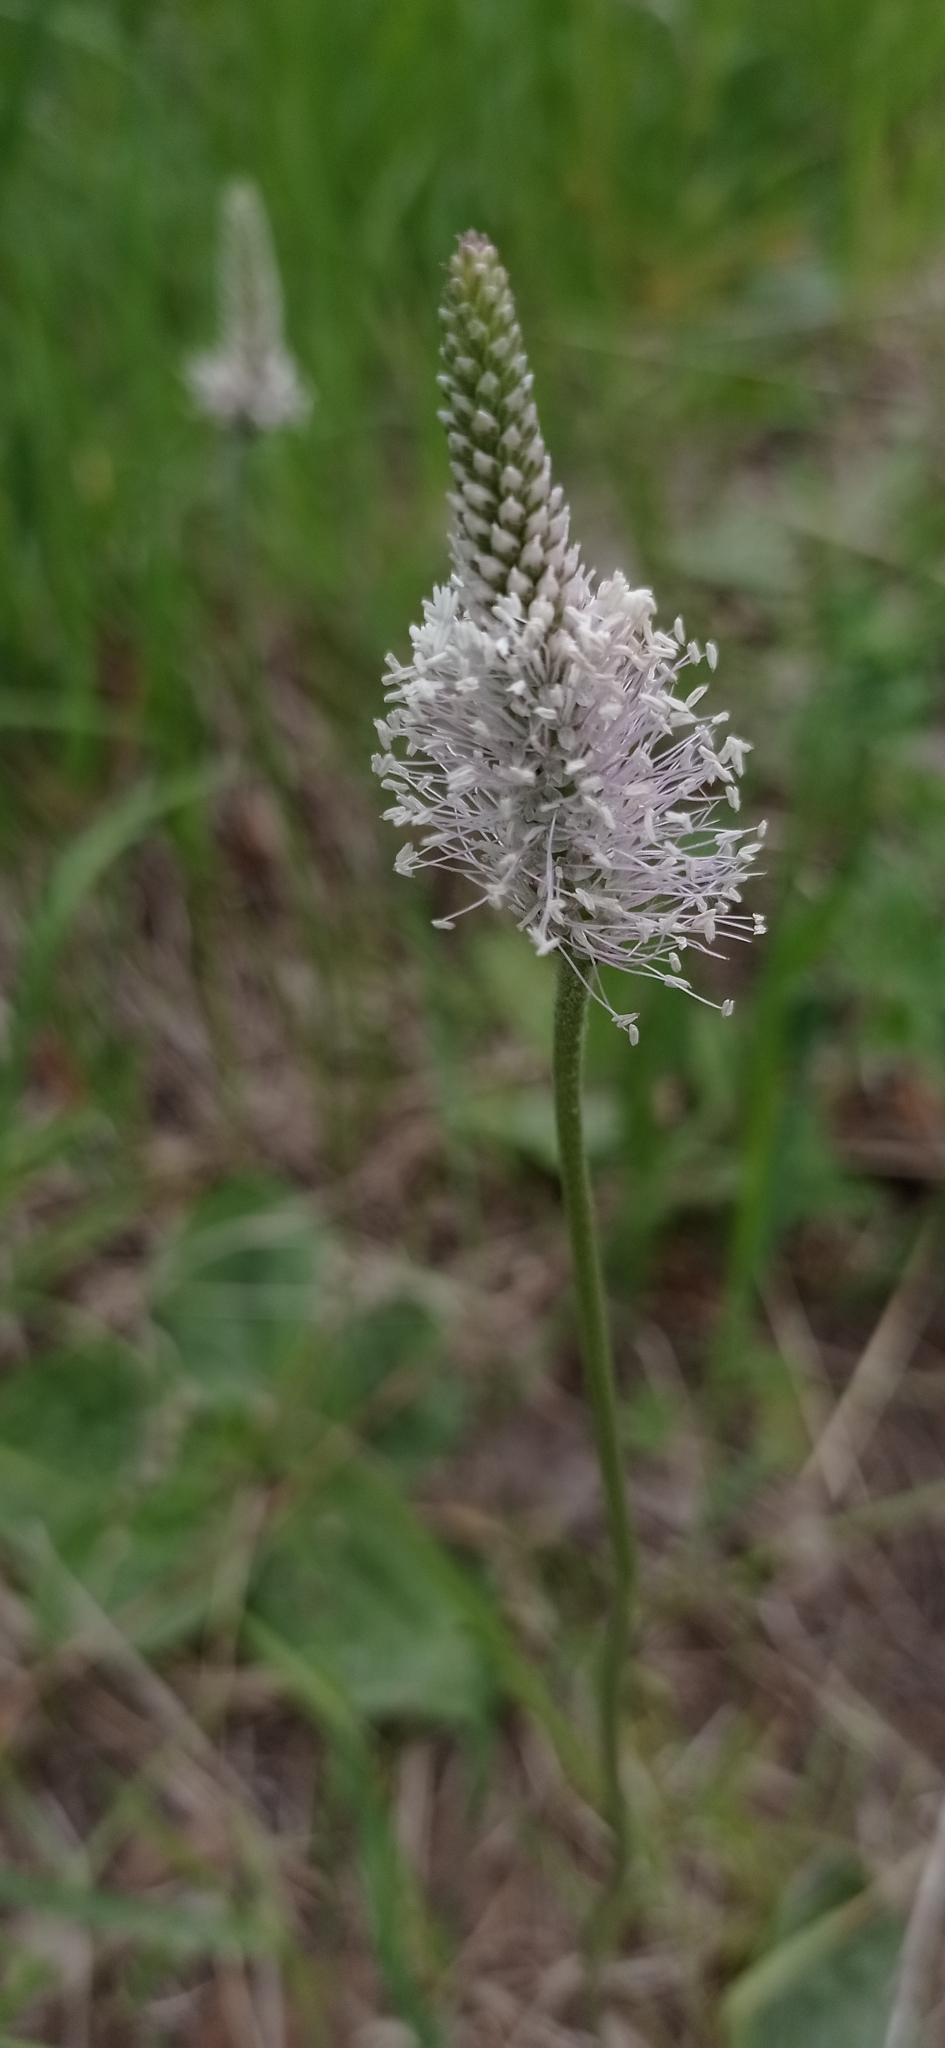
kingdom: Plantae
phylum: Tracheophyta
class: Magnoliopsida
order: Lamiales
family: Plantaginaceae
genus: Plantago
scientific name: Plantago media
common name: Hoary plantain
